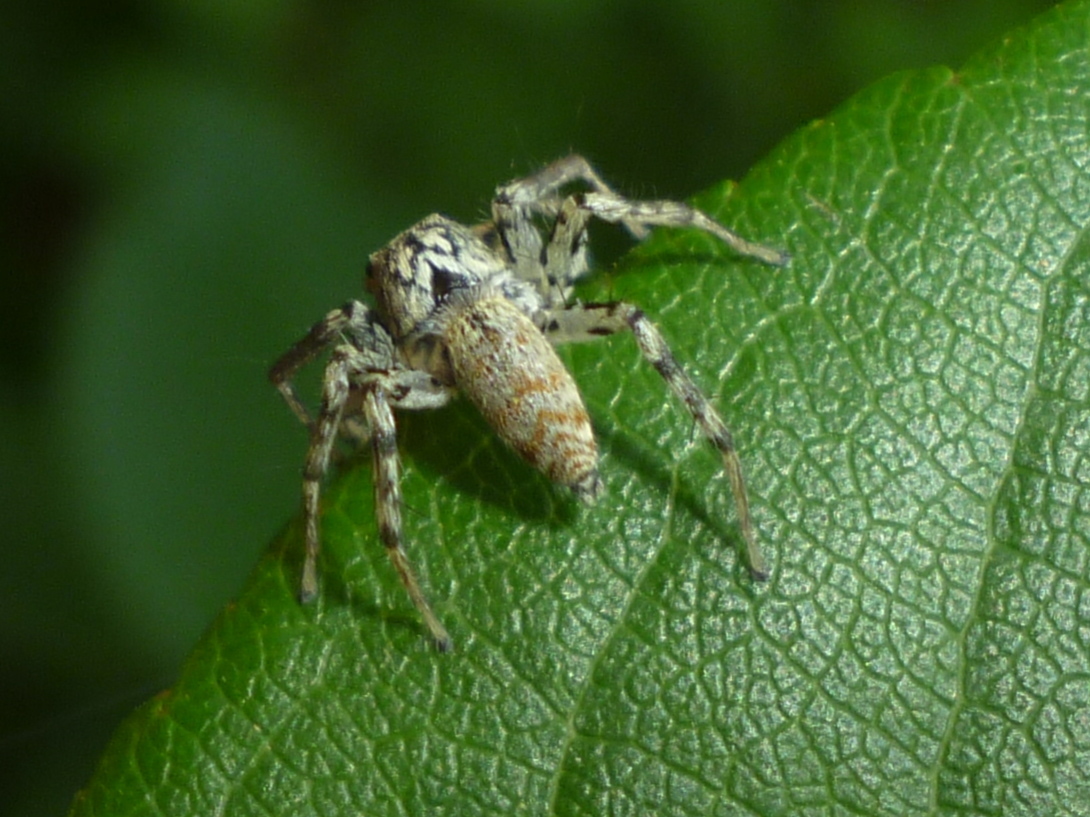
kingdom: Animalia
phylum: Arthropoda
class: Arachnida
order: Araneae
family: Salticidae
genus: Maevia
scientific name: Maevia inclemens
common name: Dimorphic jumper
